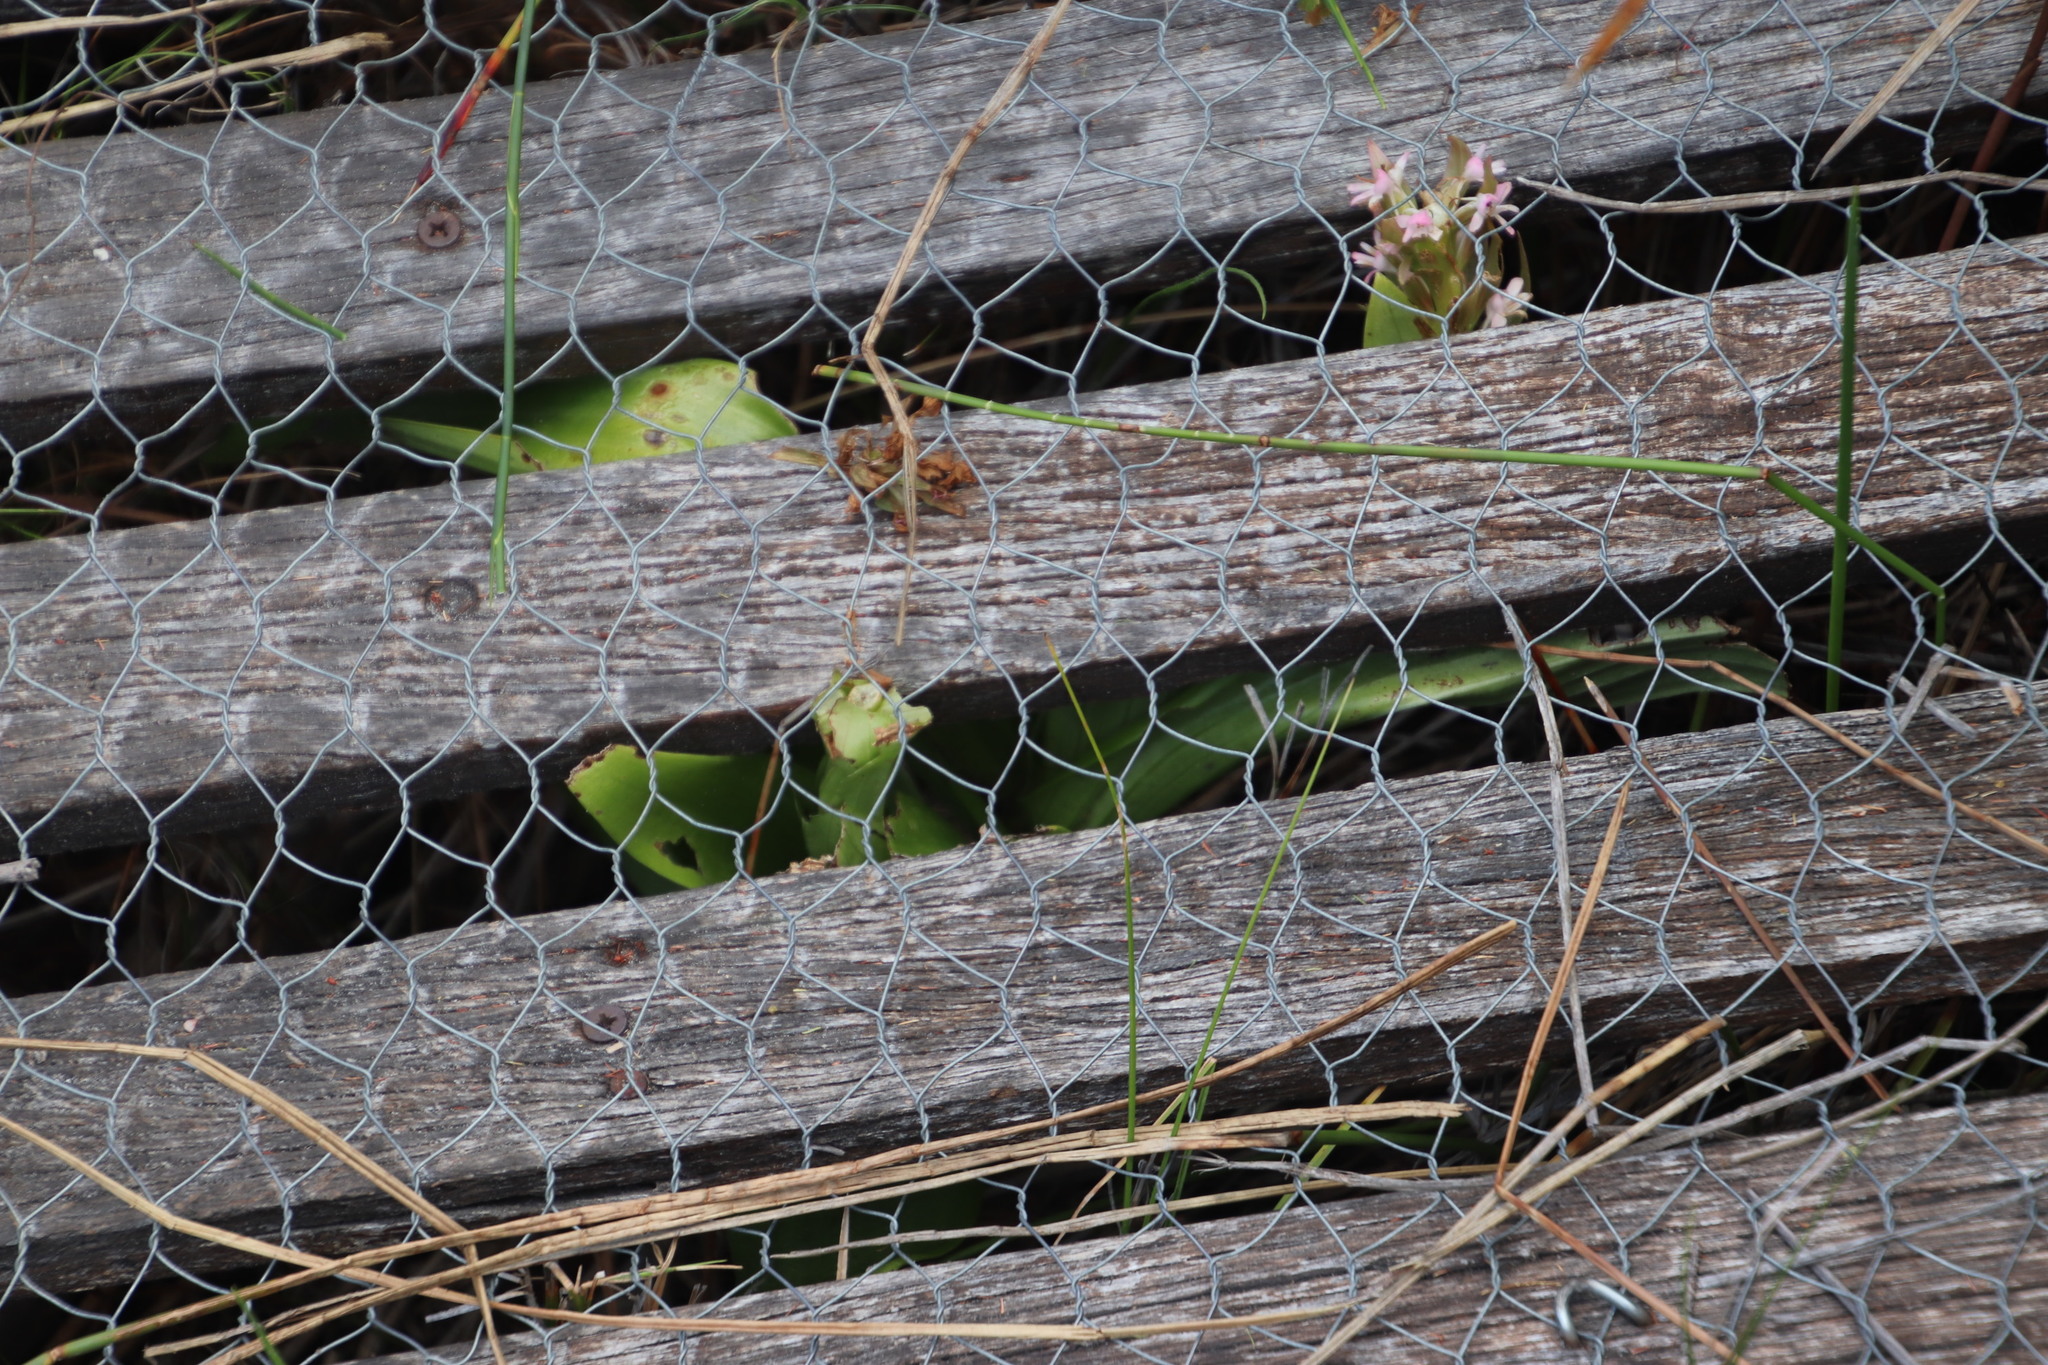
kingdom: Plantae
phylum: Tracheophyta
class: Liliopsida
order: Asparagales
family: Orchidaceae
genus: Satyrium
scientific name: Satyrium hallackii
